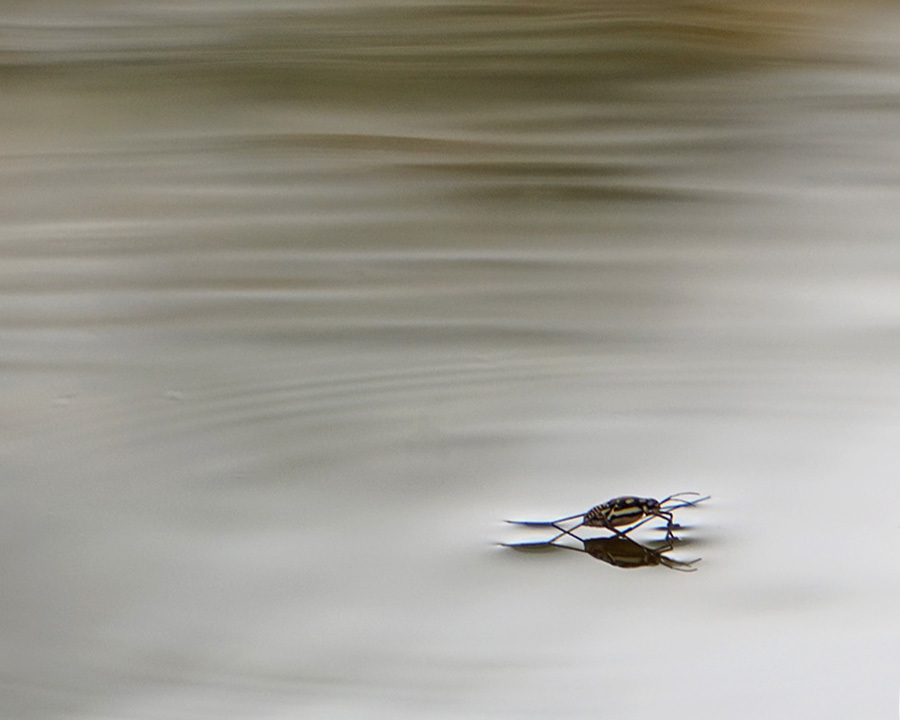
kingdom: Animalia
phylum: Arthropoda
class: Insecta
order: Hemiptera
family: Gerridae
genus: Trepobates
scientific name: Trepobates subnitidus
